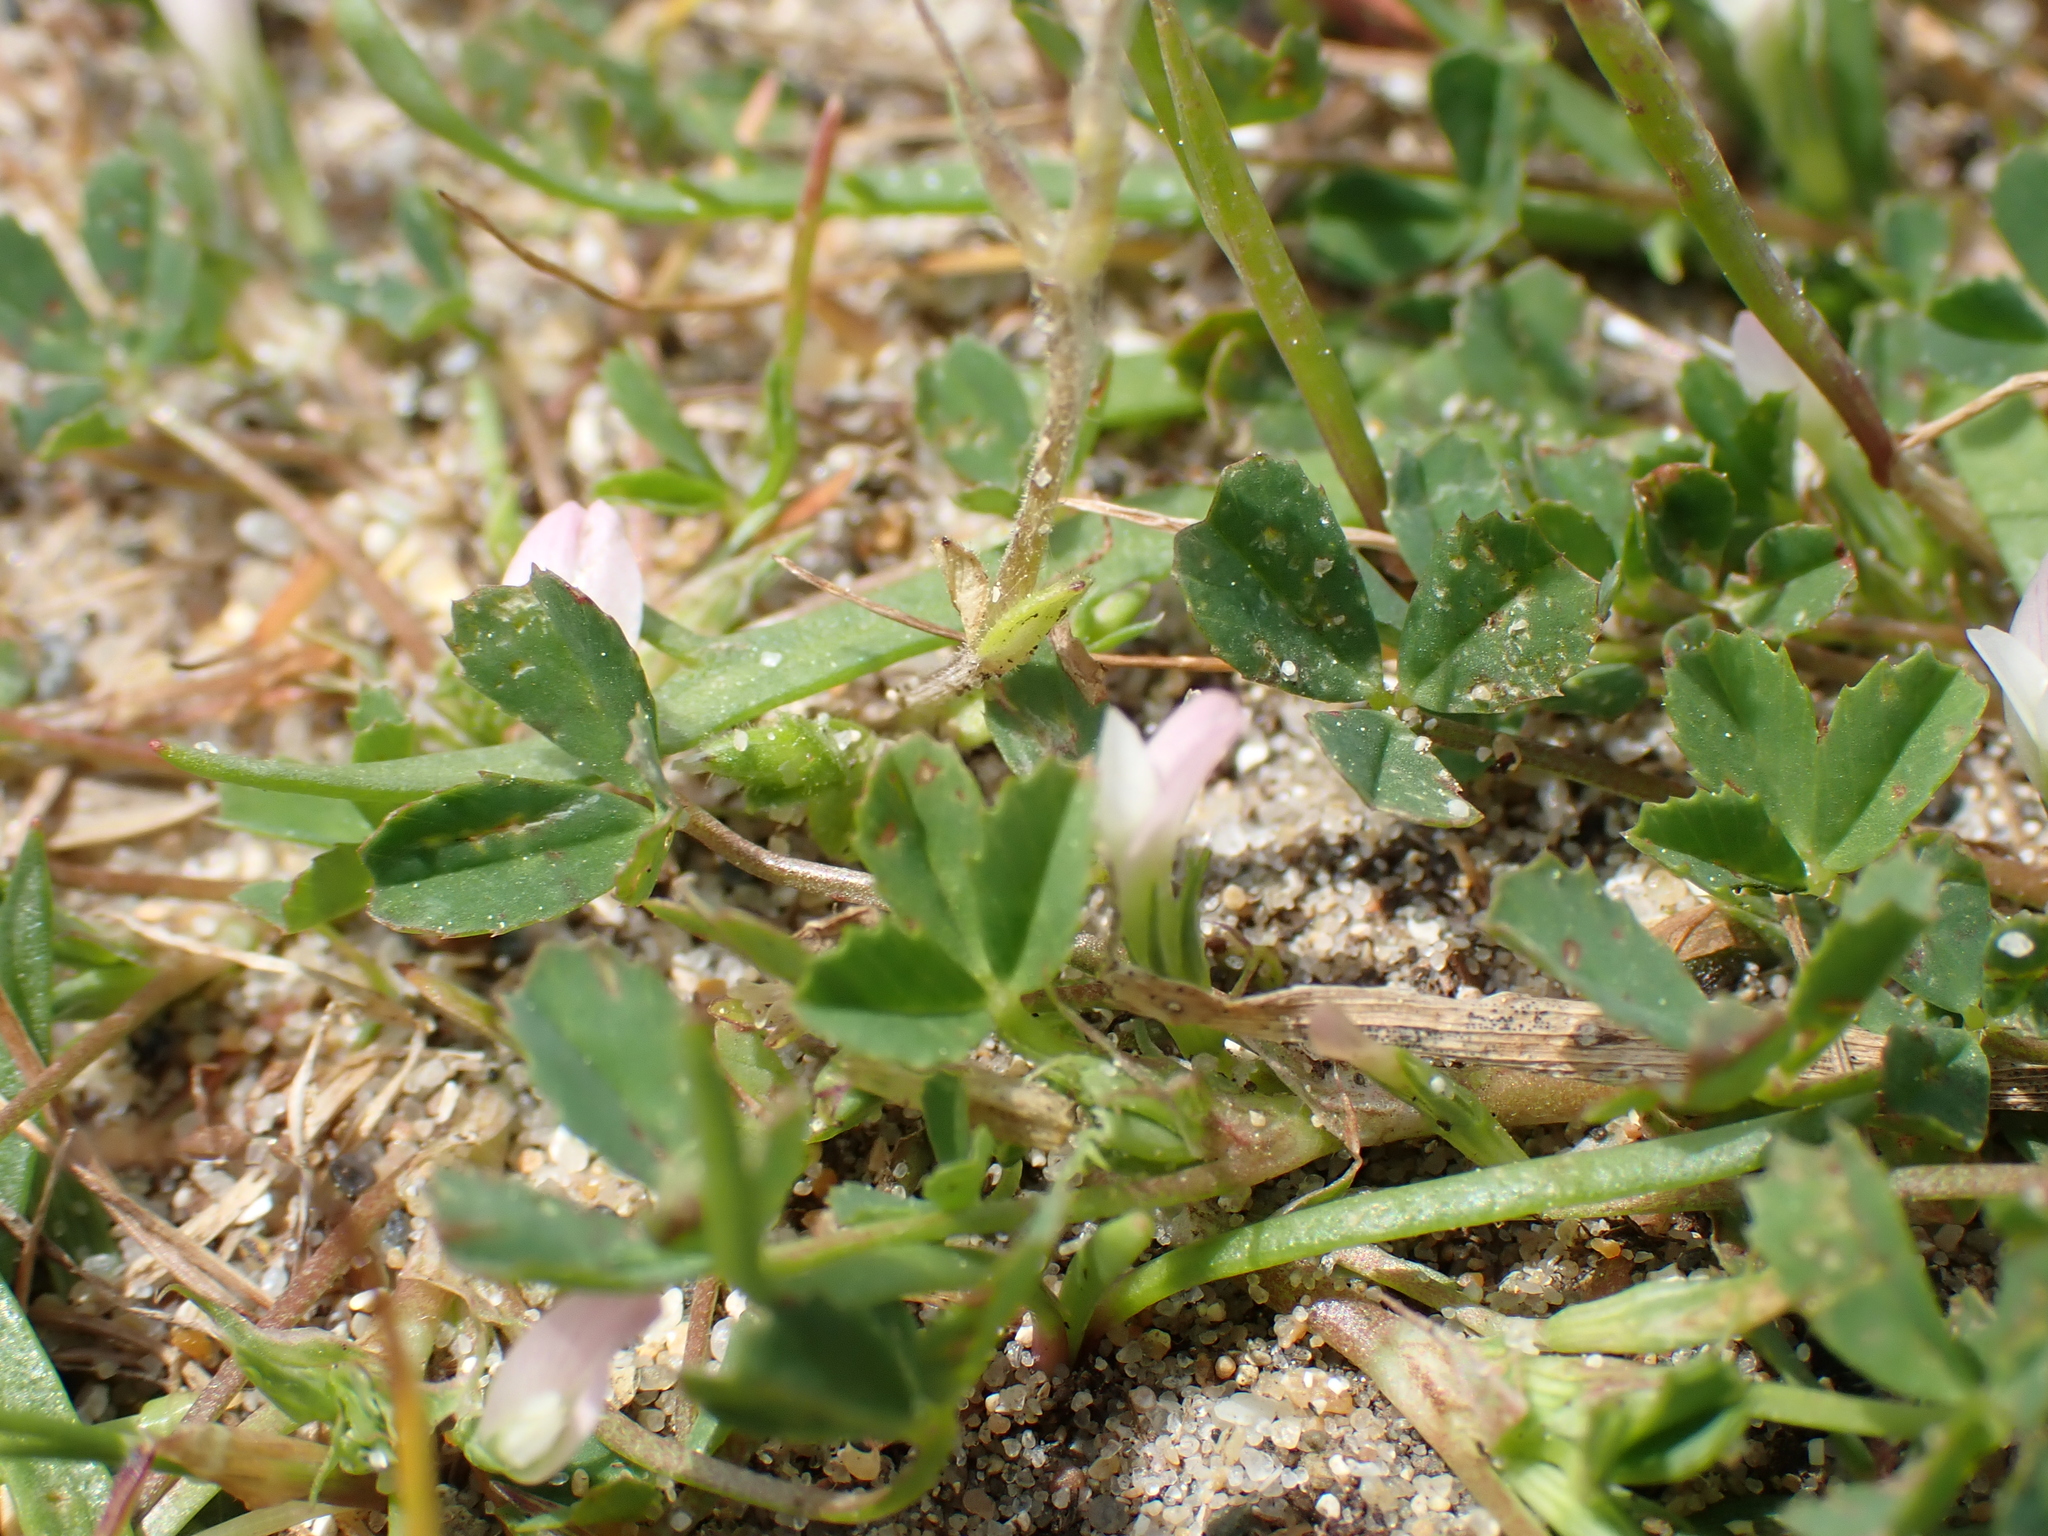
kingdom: Plantae
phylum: Tracheophyta
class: Magnoliopsida
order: Fabales
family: Fabaceae
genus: Trifolium
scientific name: Trifolium ornithopodioides
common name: Bird's-foot clover
